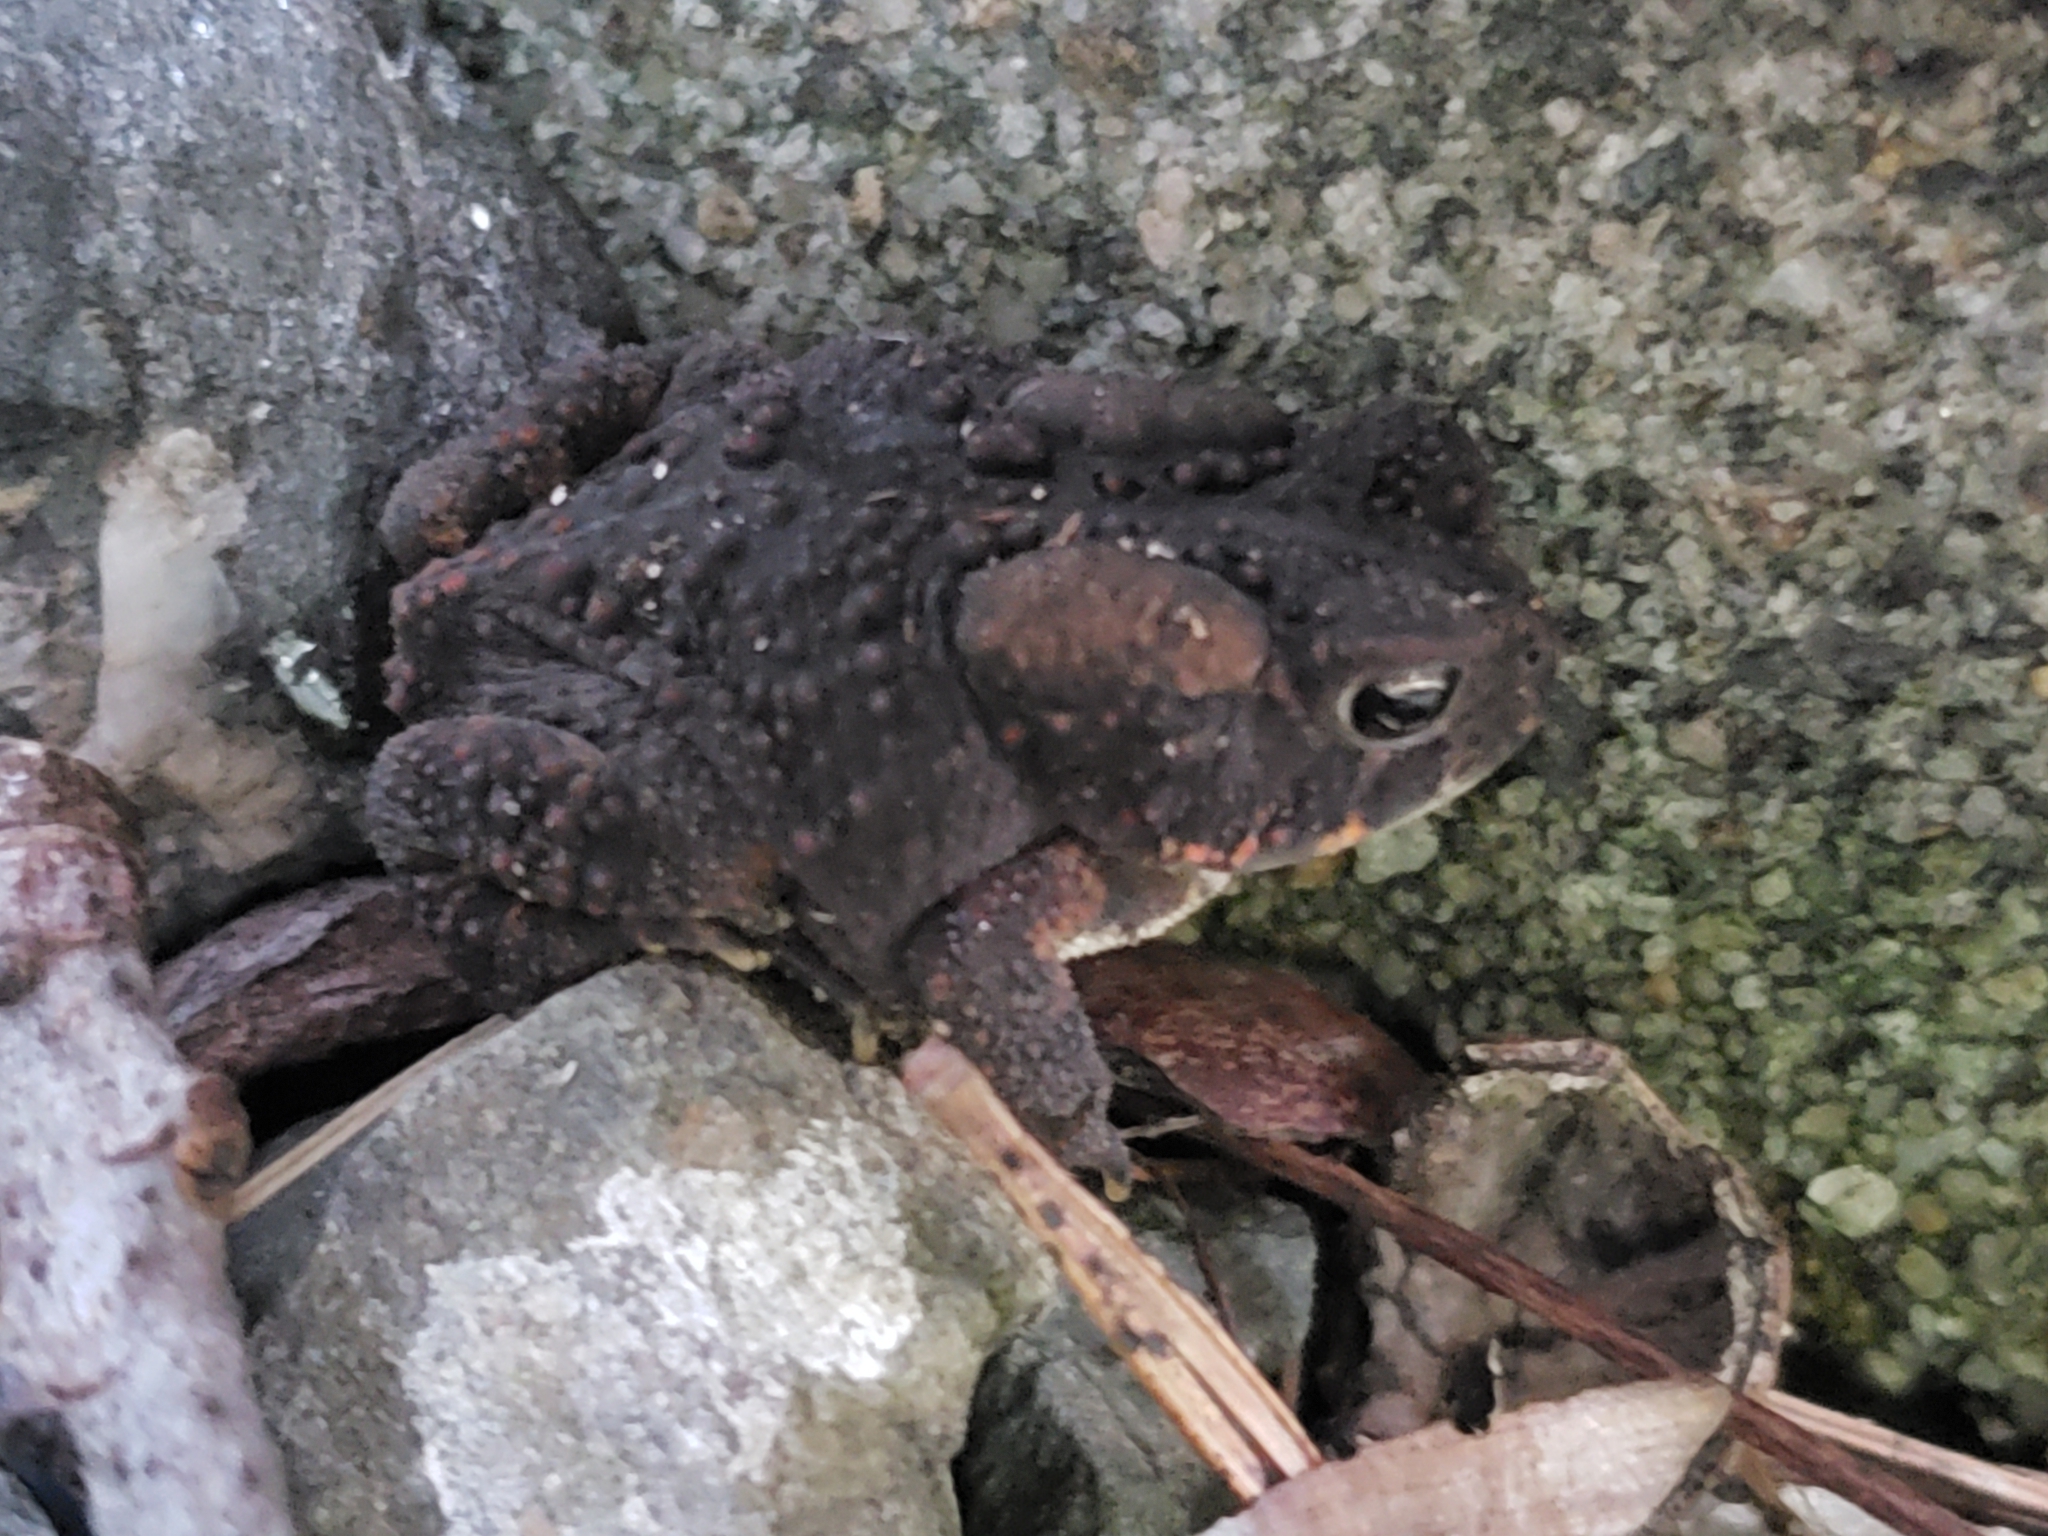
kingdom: Animalia
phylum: Chordata
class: Amphibia
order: Anura
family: Bufonidae
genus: Anaxyrus
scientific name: Anaxyrus americanus
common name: American toad
